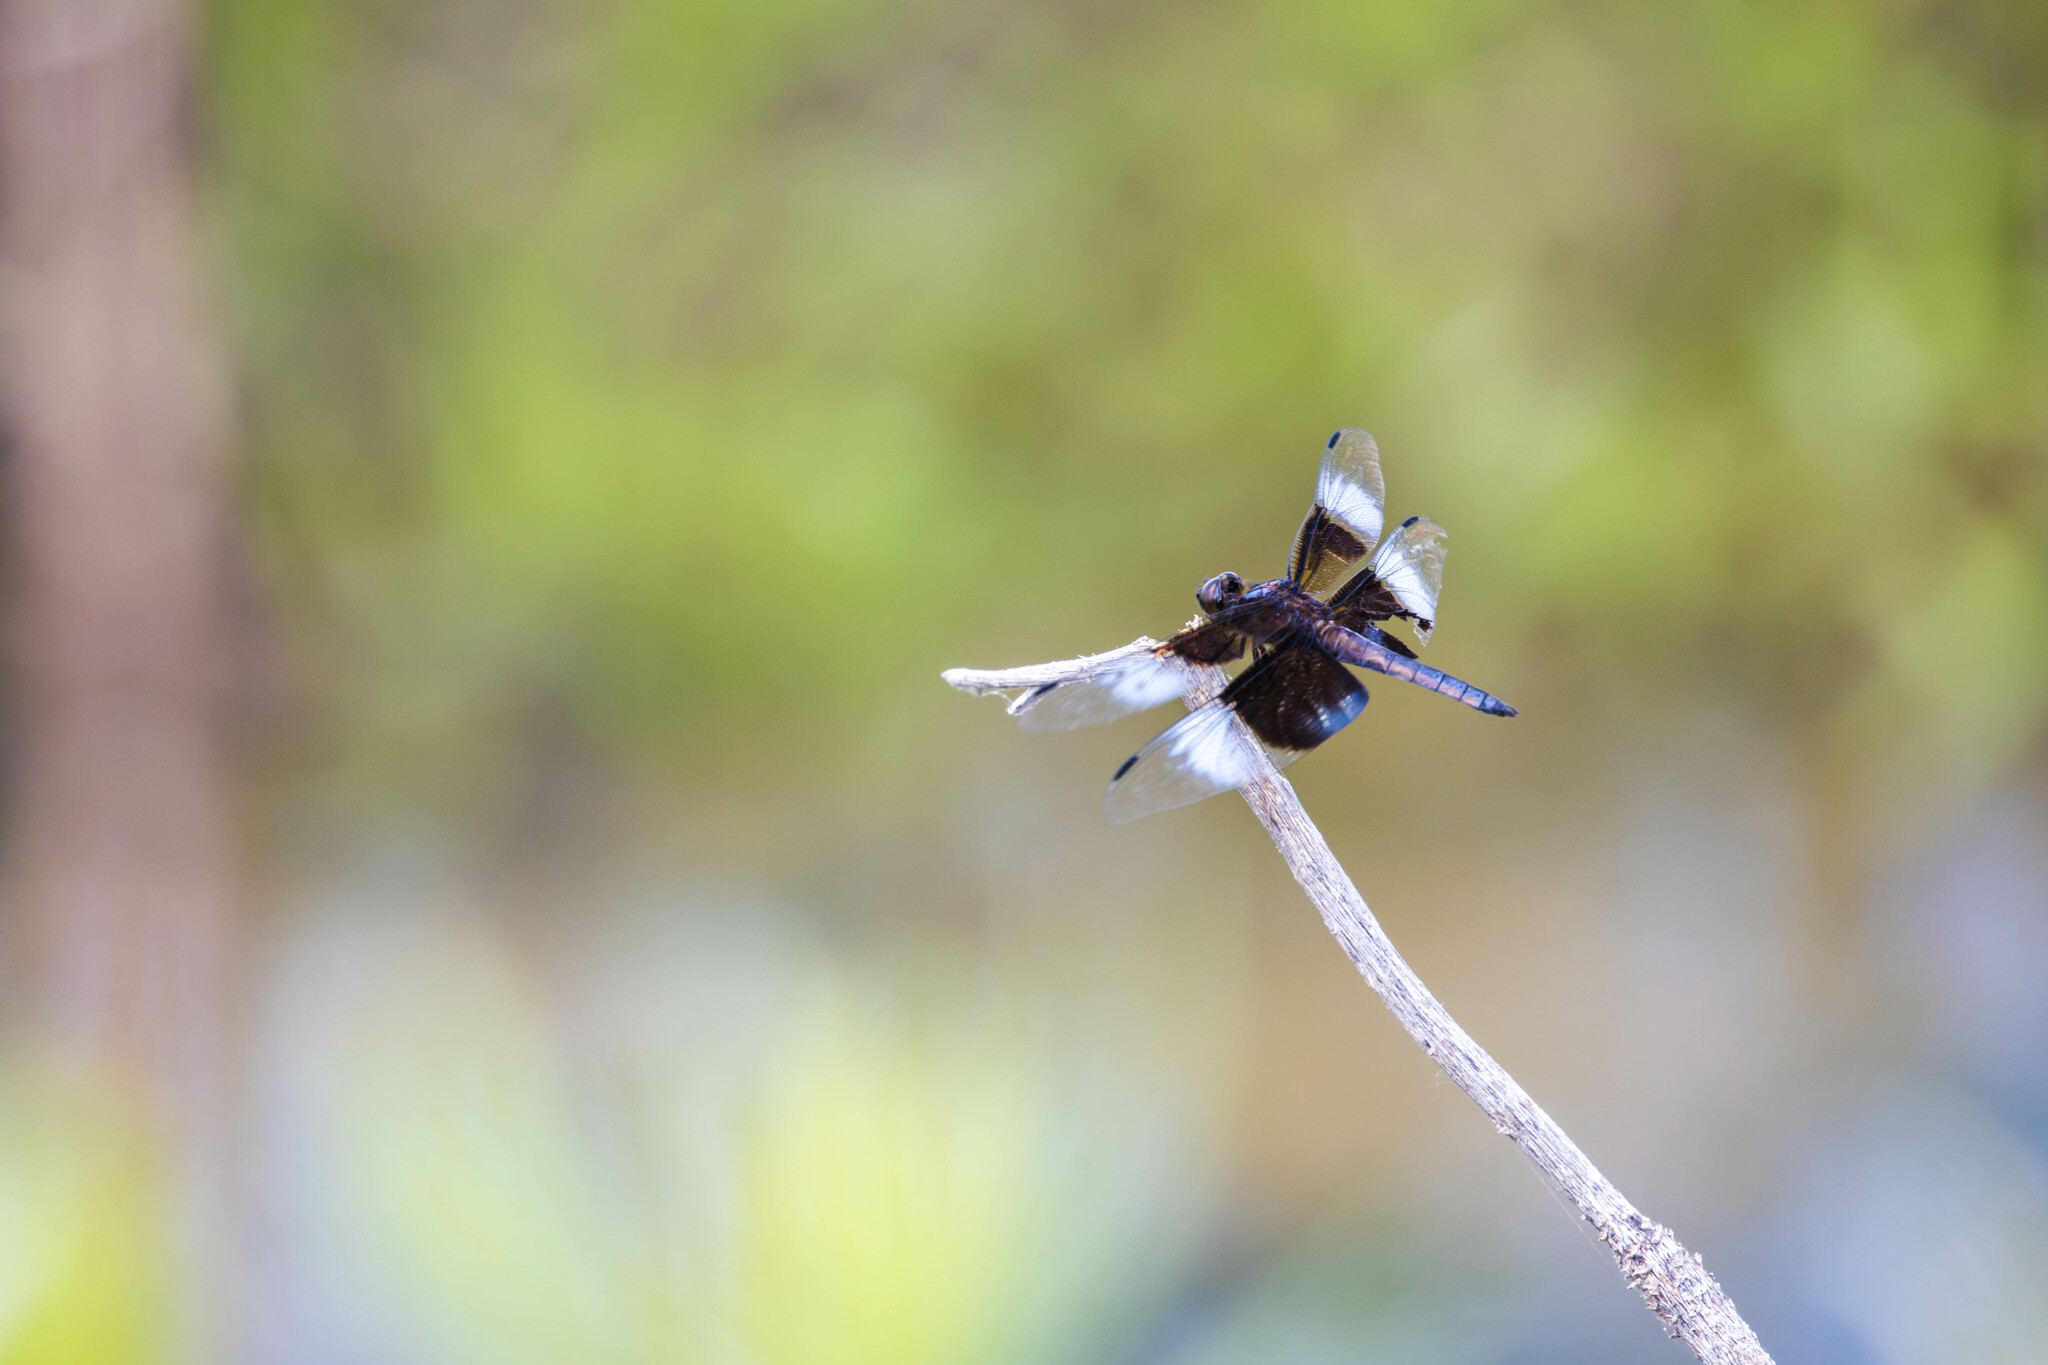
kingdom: Animalia
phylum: Arthropoda
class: Insecta
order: Odonata
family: Libellulidae
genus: Libellula
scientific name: Libellula luctuosa
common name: Widow skimmer
